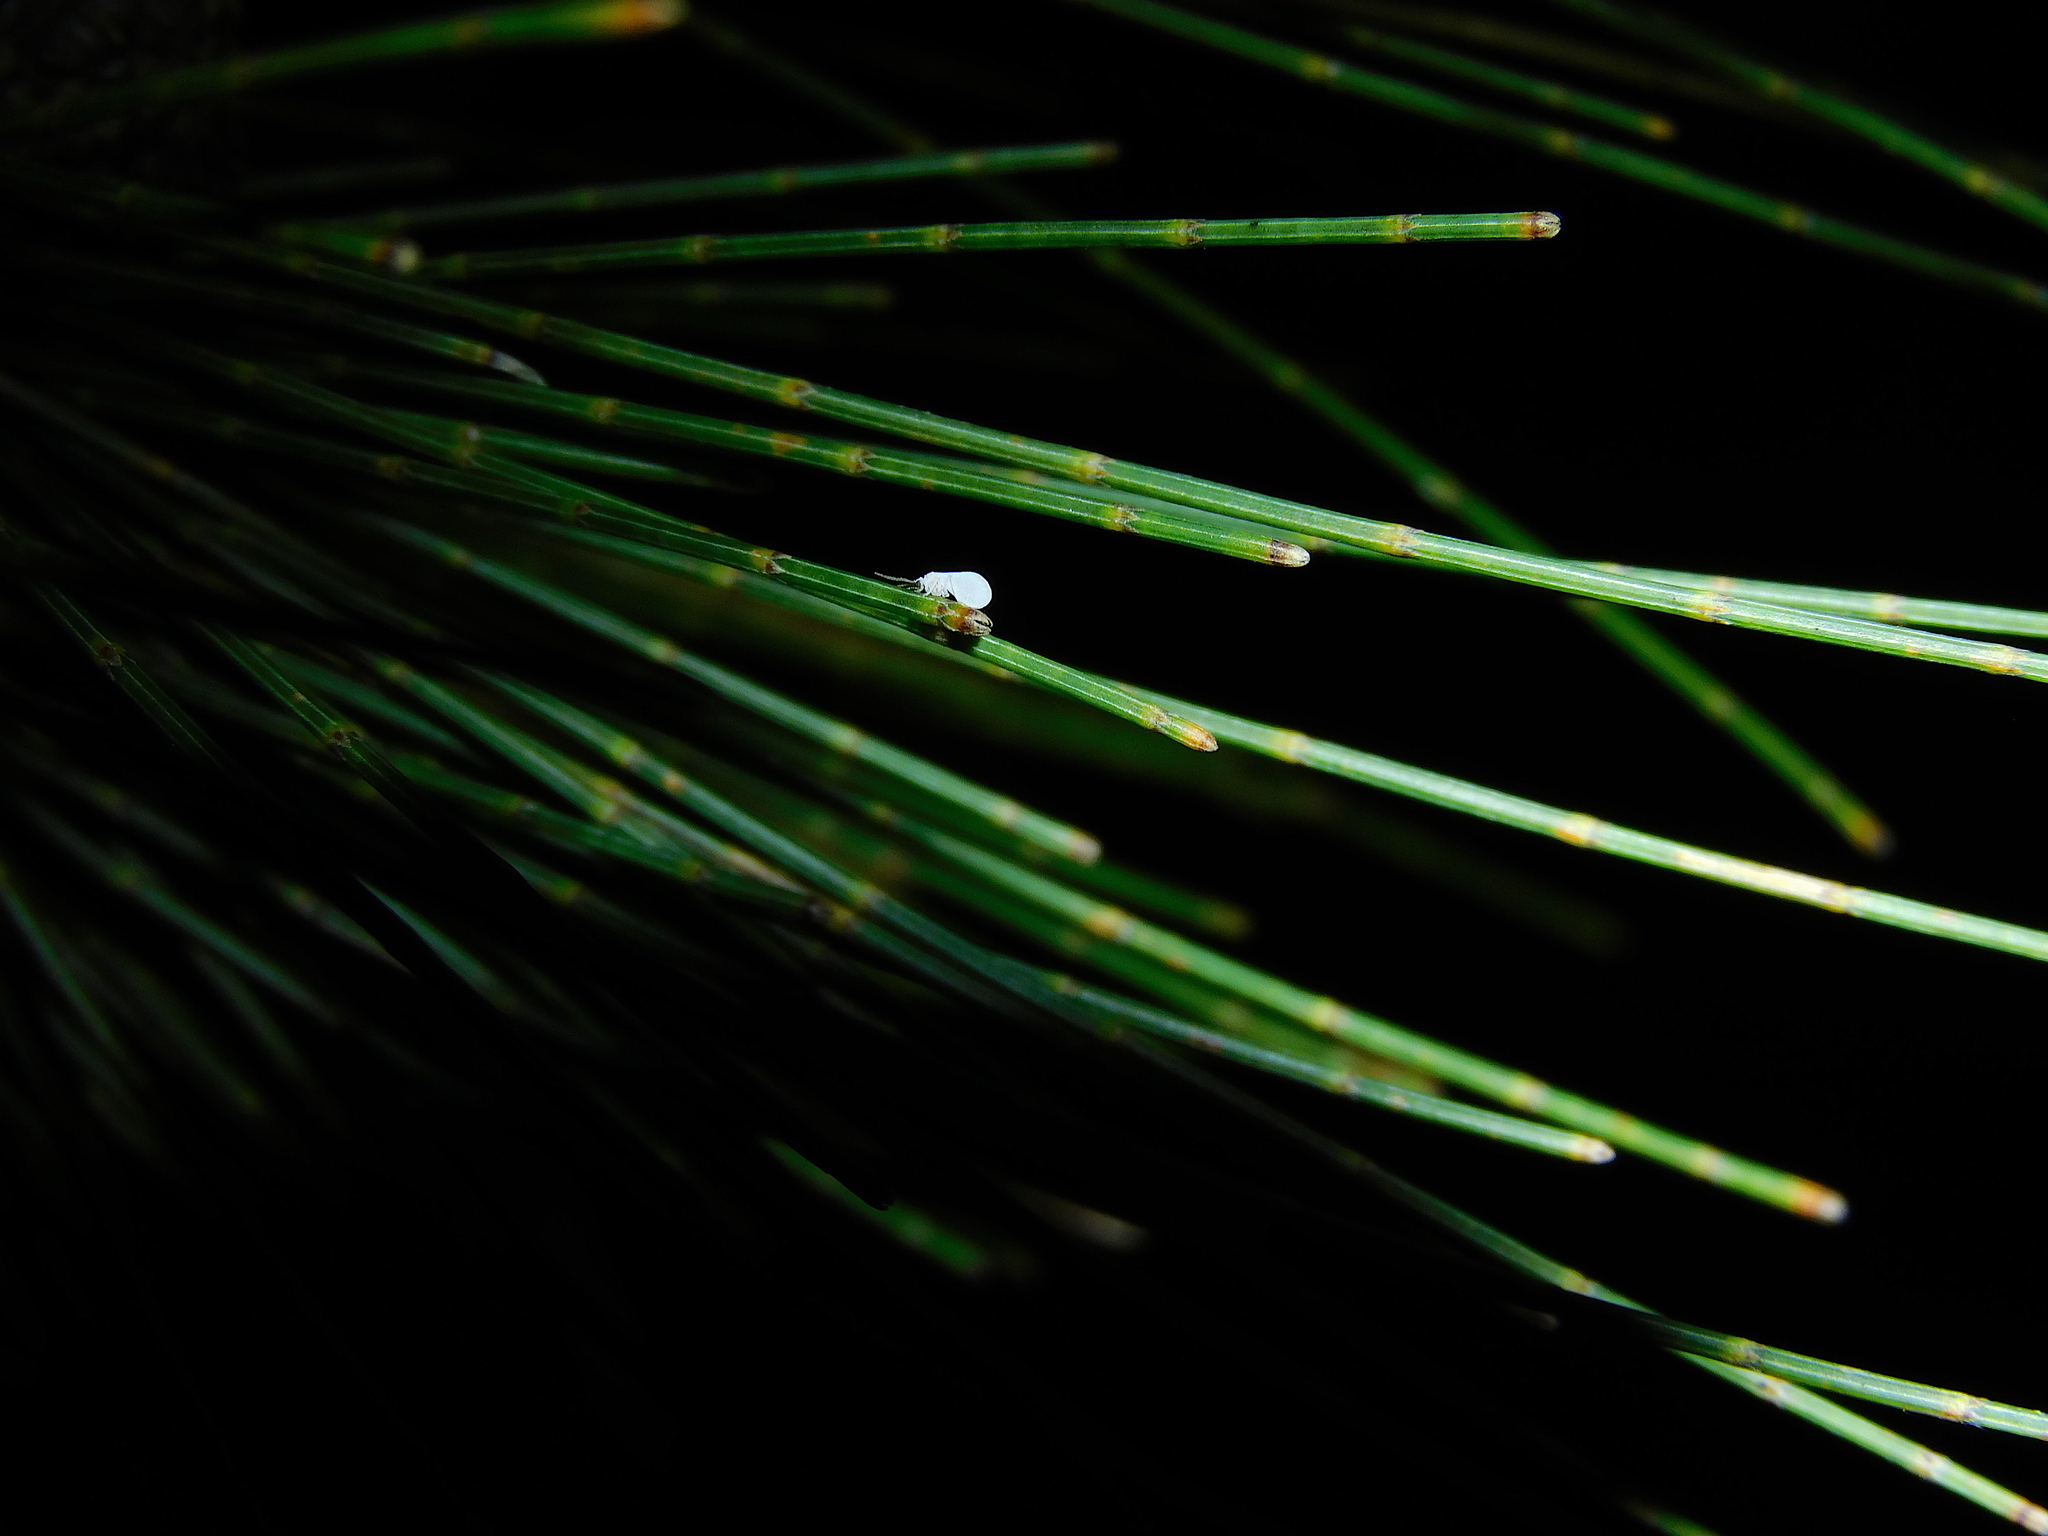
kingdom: Animalia
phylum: Arthropoda
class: Insecta
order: Neuroptera
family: Coniopterygidae
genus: Cryptoscenea
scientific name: Cryptoscenea australiensis
